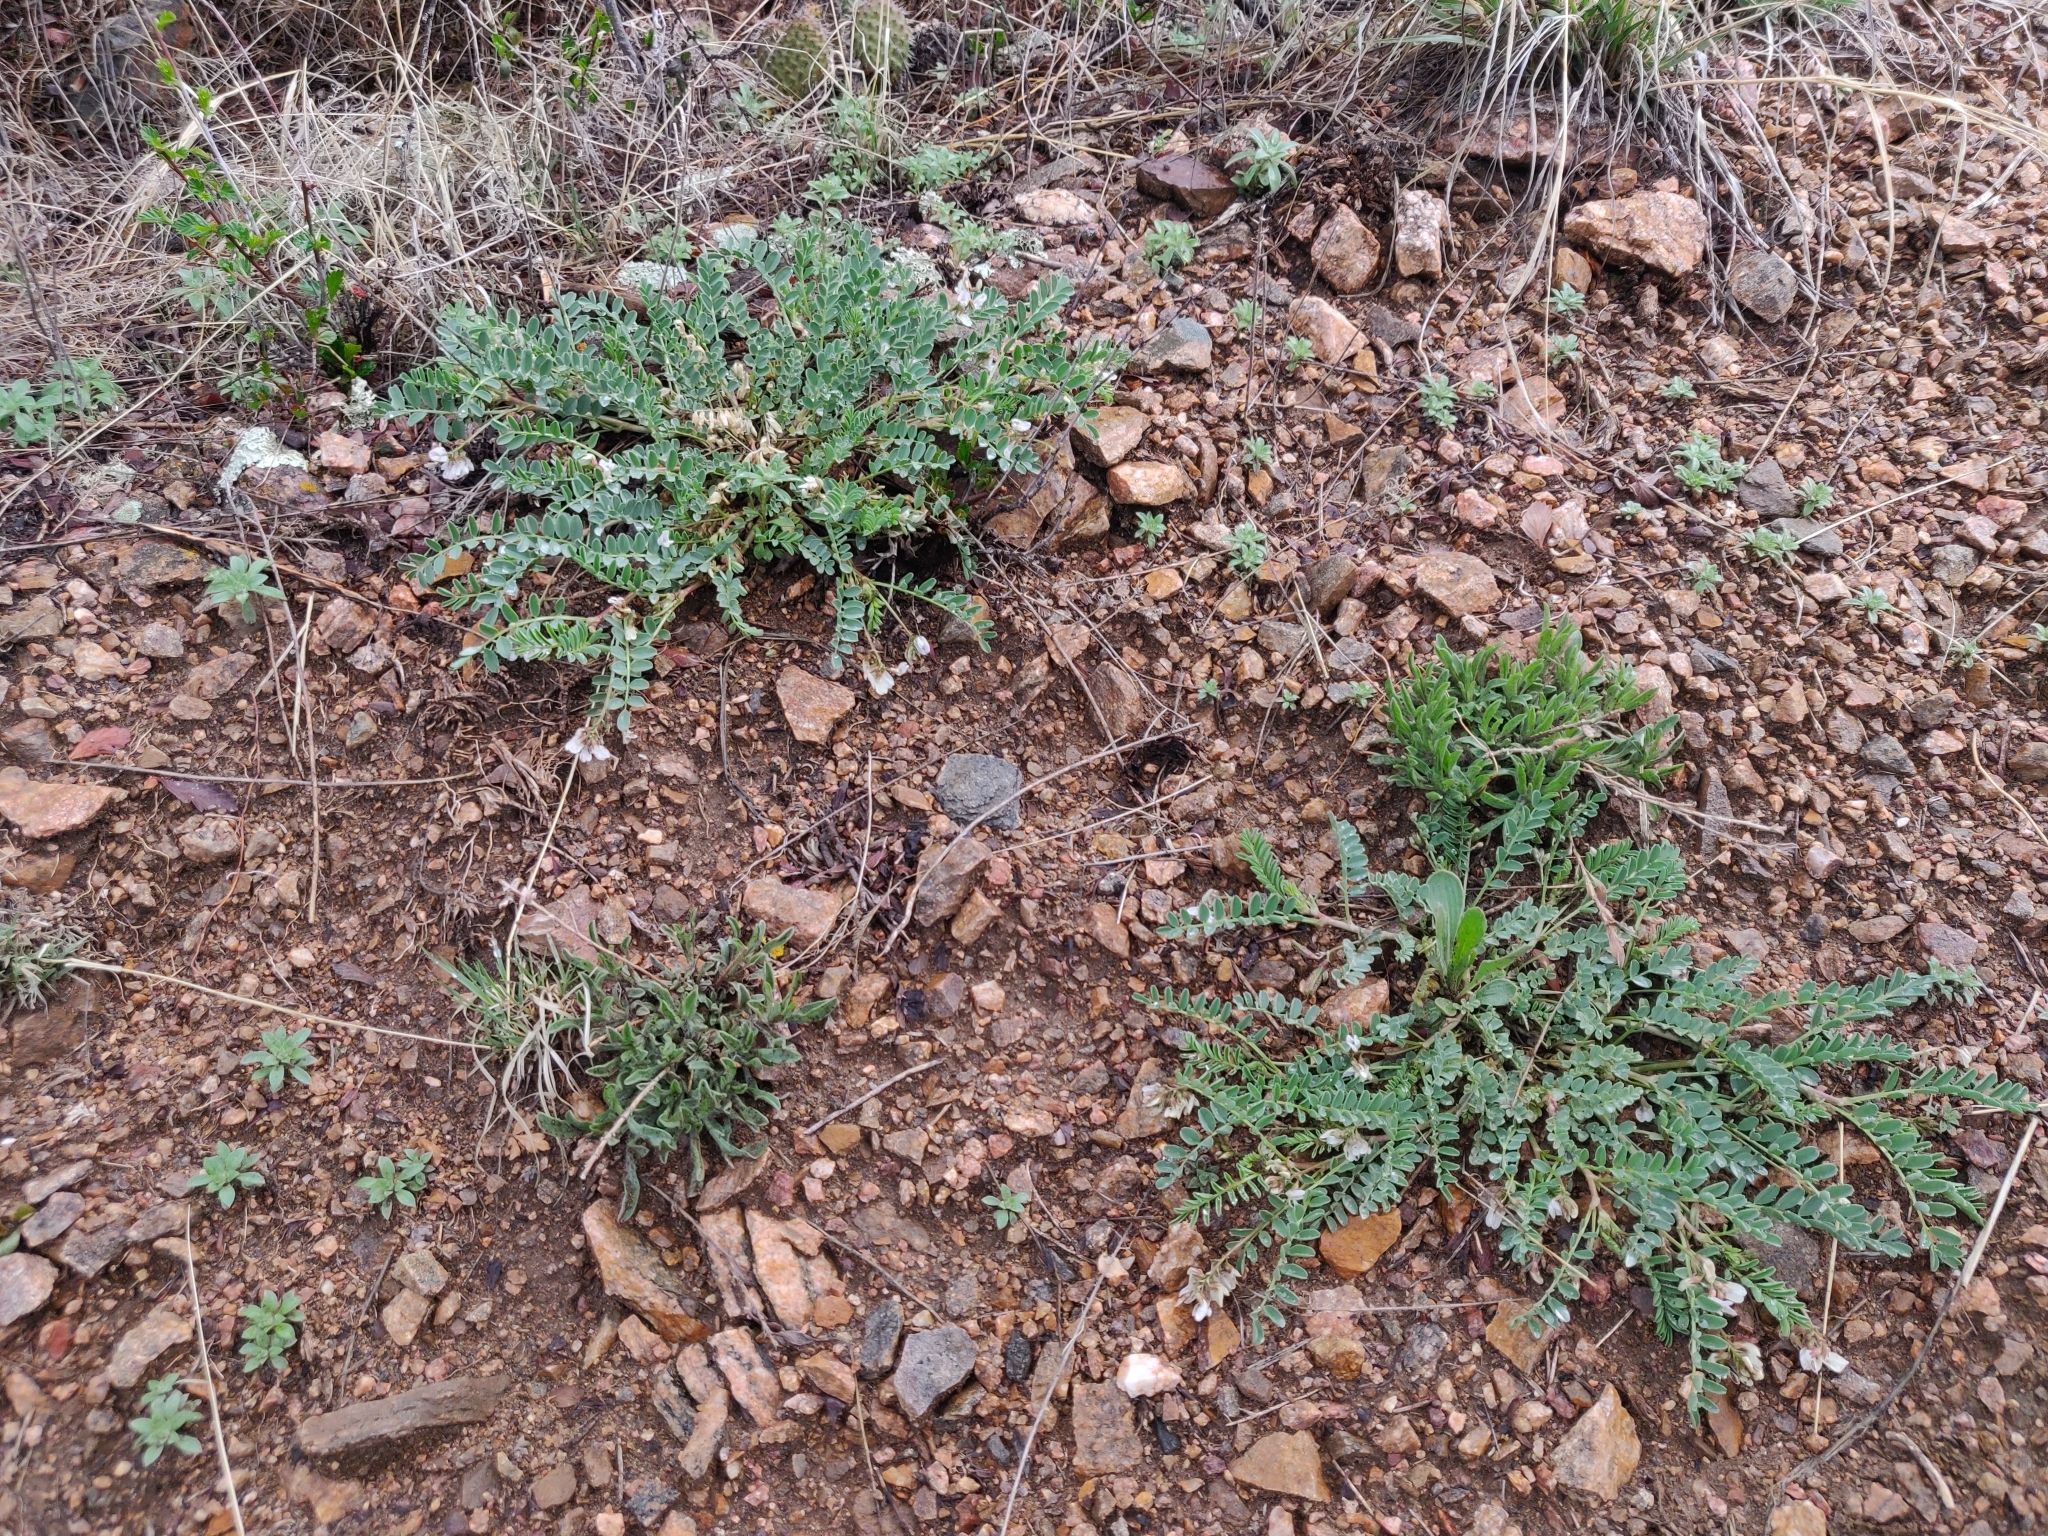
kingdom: Plantae
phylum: Tracheophyta
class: Magnoliopsida
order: Fabales
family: Fabaceae
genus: Astragalus
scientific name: Astragalus sparsiflorus
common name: Front range milkvetch
